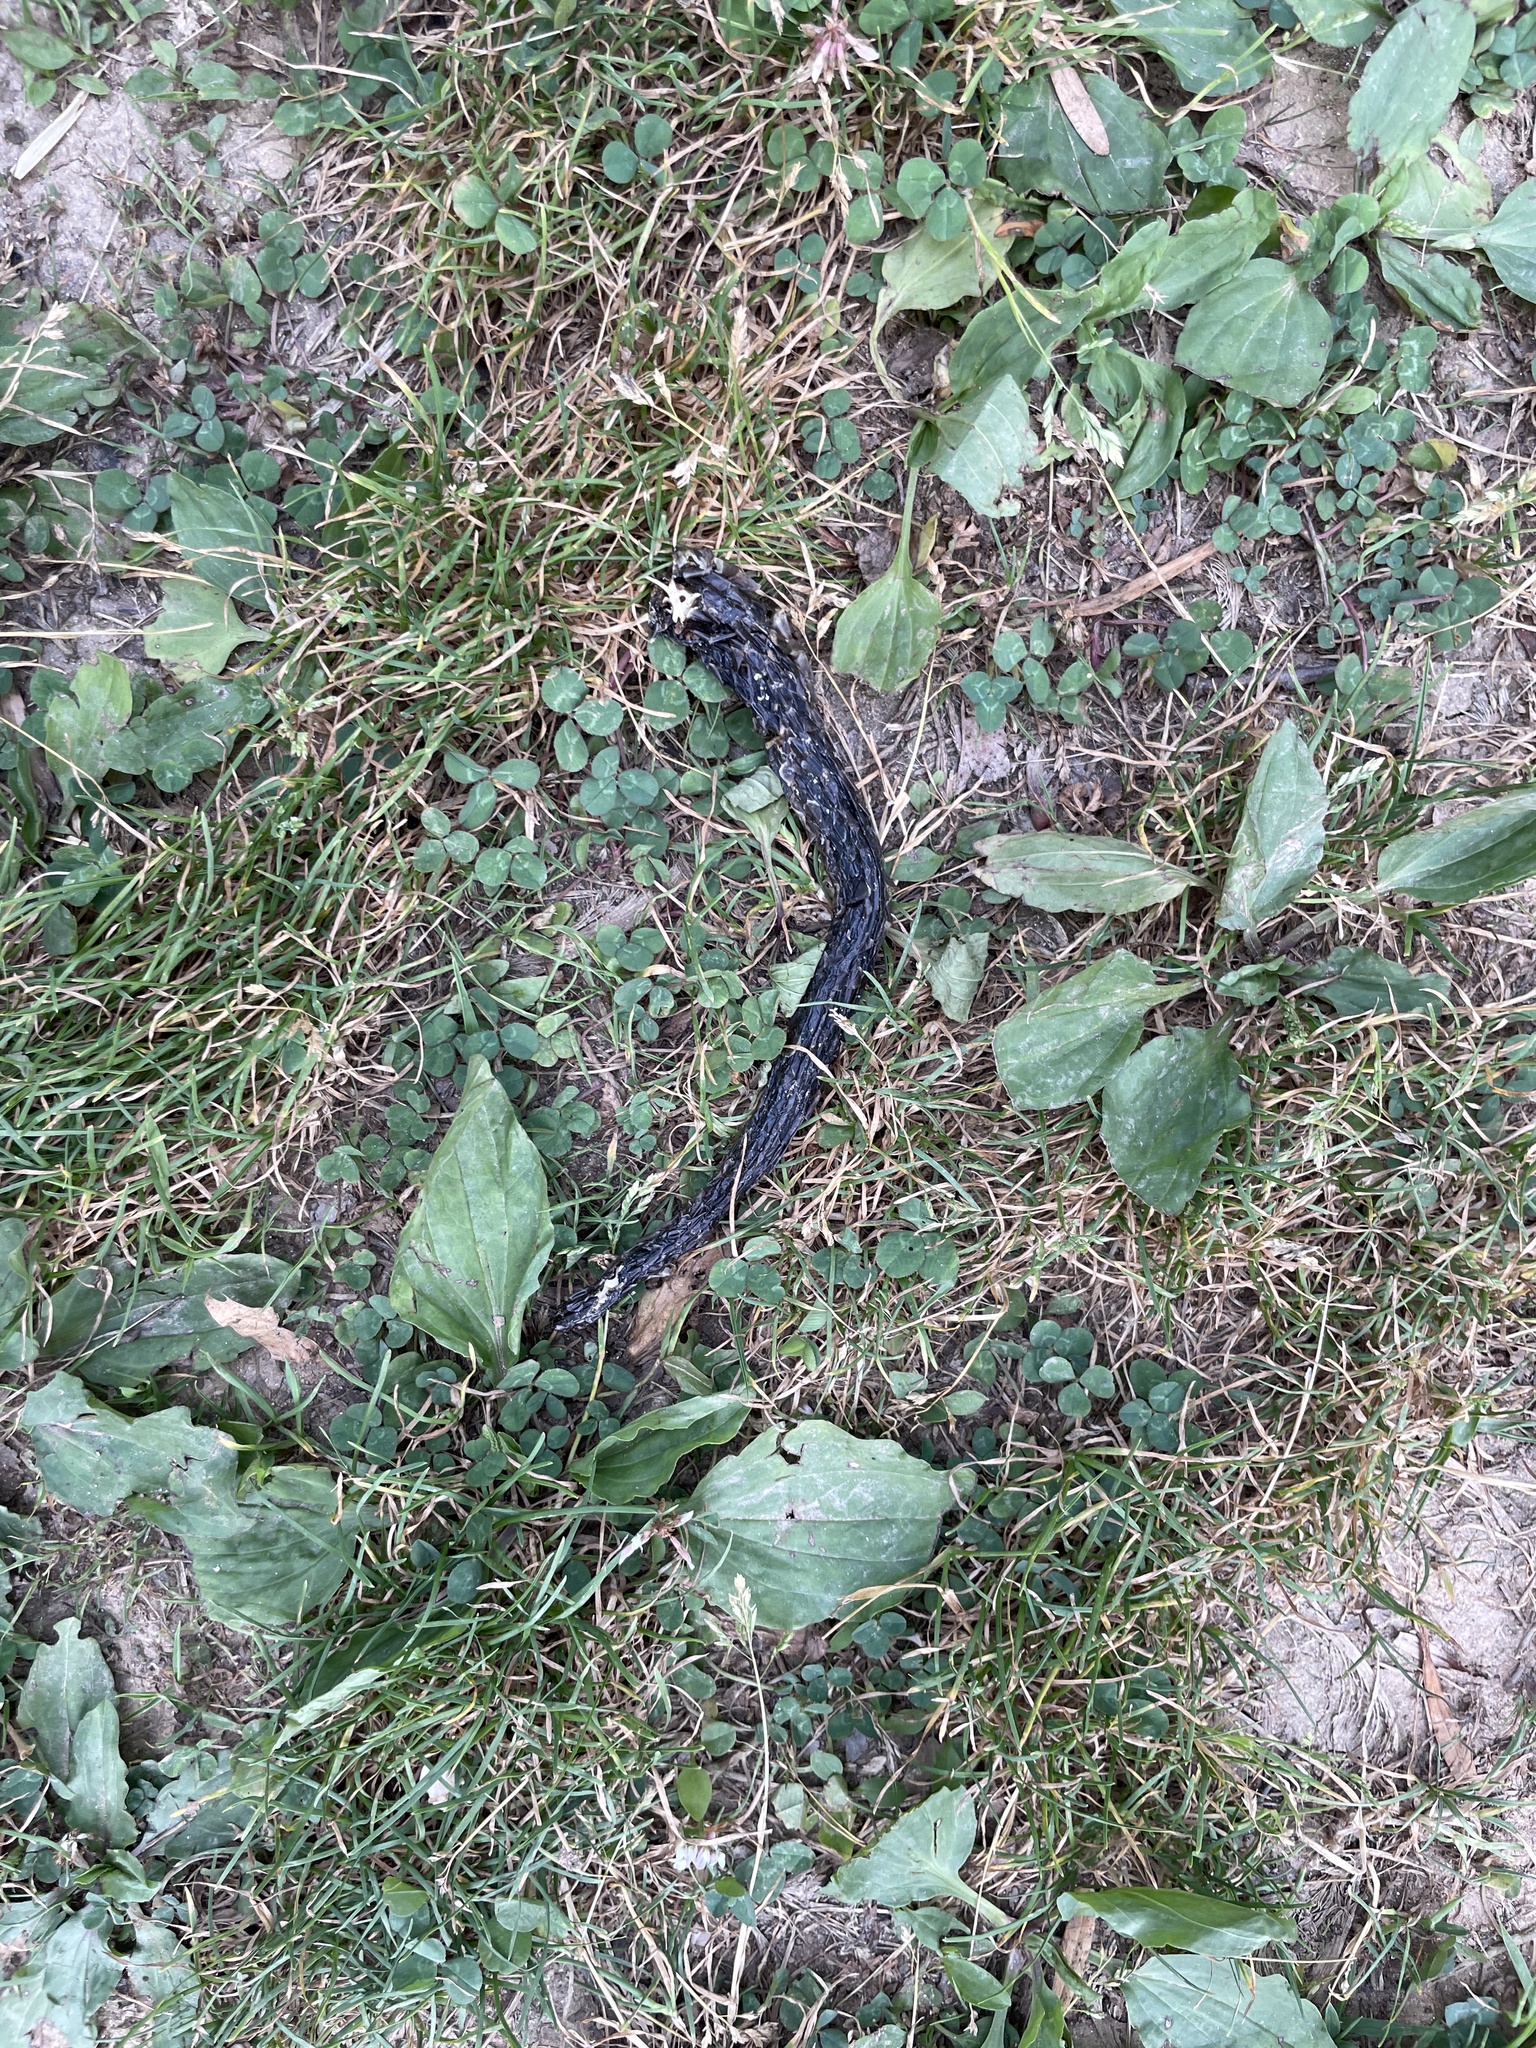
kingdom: Animalia
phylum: Chordata
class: Squamata
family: Colubridae
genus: Pantherophis
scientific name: Pantherophis
